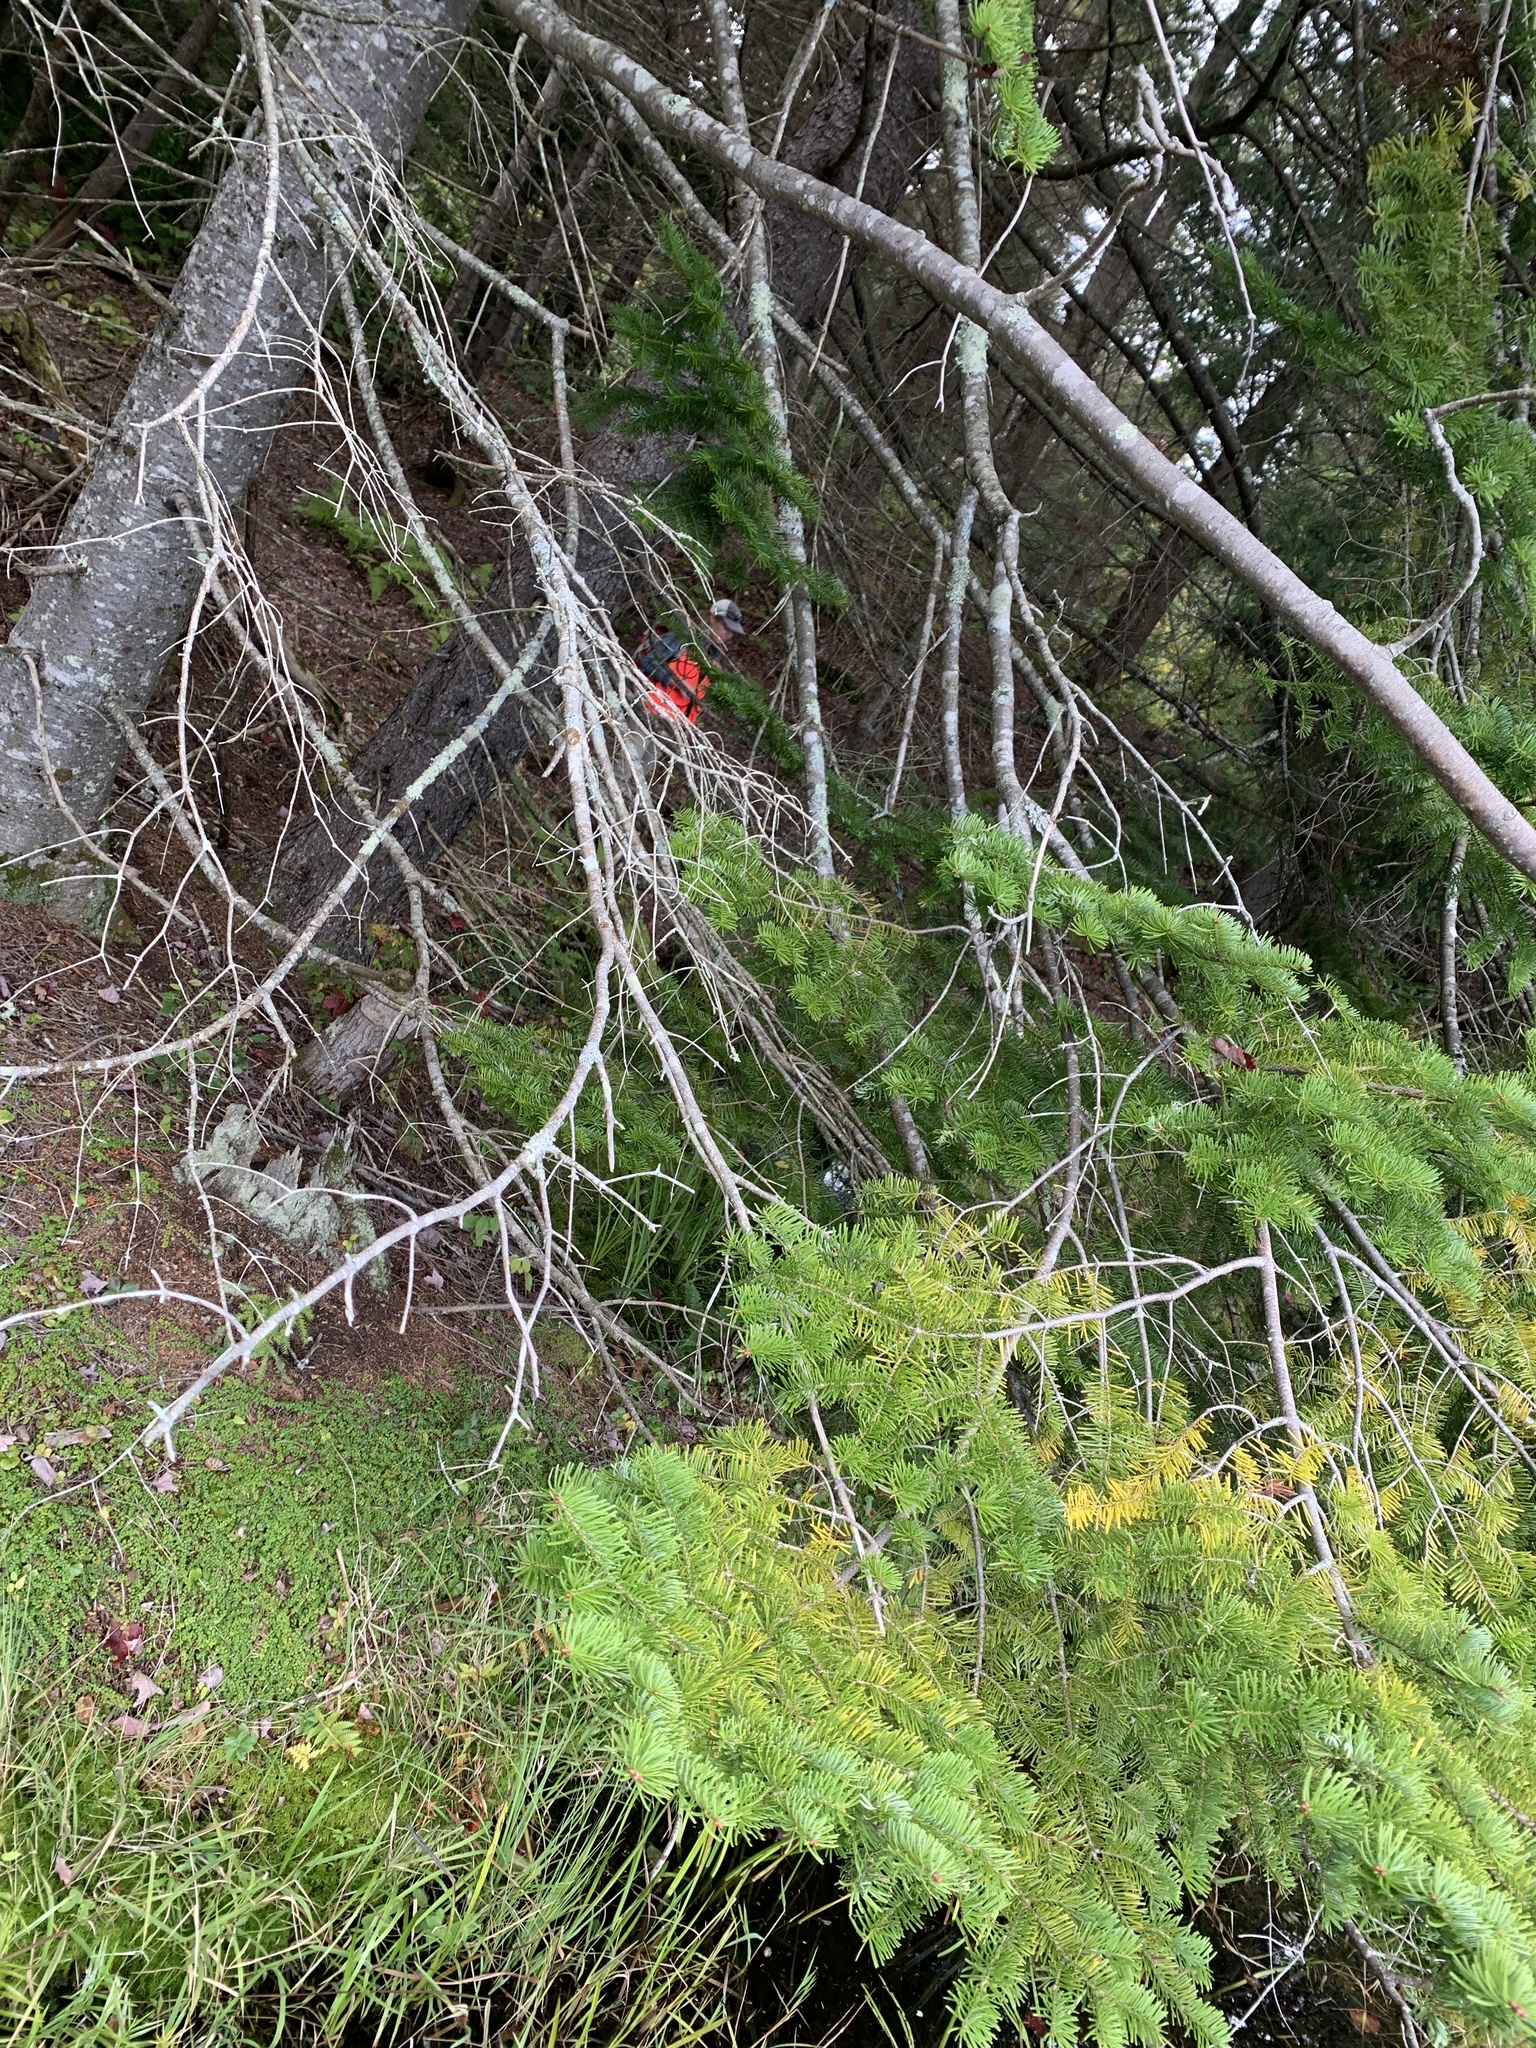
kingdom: Plantae
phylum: Tracheophyta
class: Pinopsida
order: Pinales
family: Pinaceae
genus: Abies
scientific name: Abies balsamea
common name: Balsam fir
